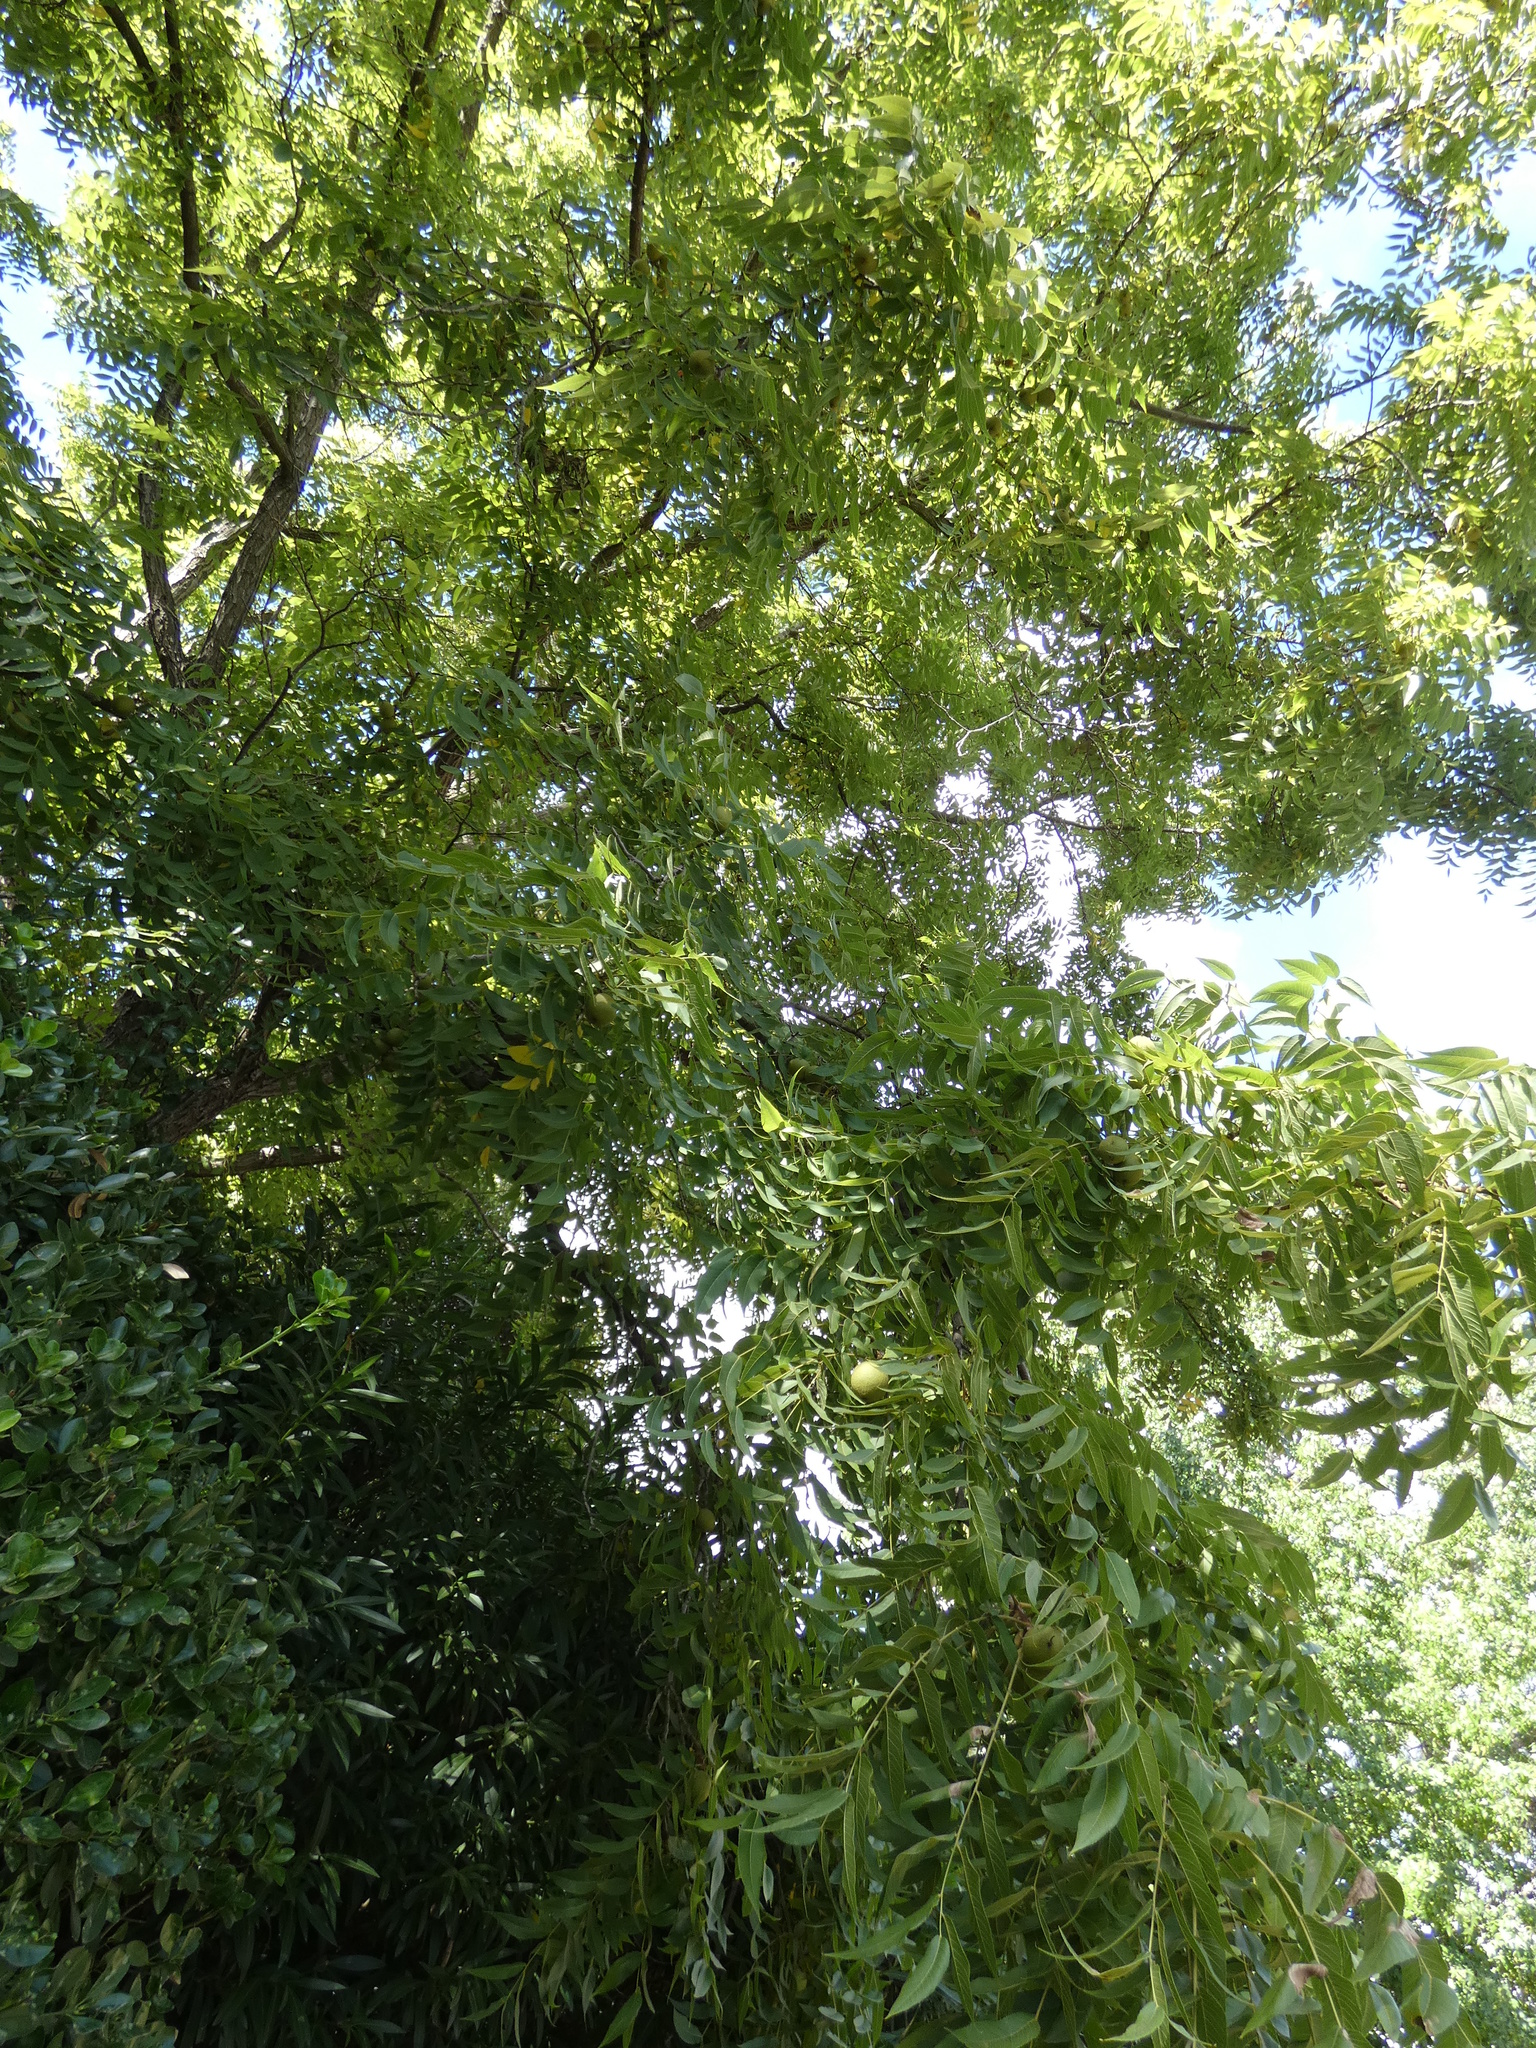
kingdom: Plantae
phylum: Tracheophyta
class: Magnoliopsida
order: Fagales
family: Juglandaceae
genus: Juglans
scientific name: Juglans
